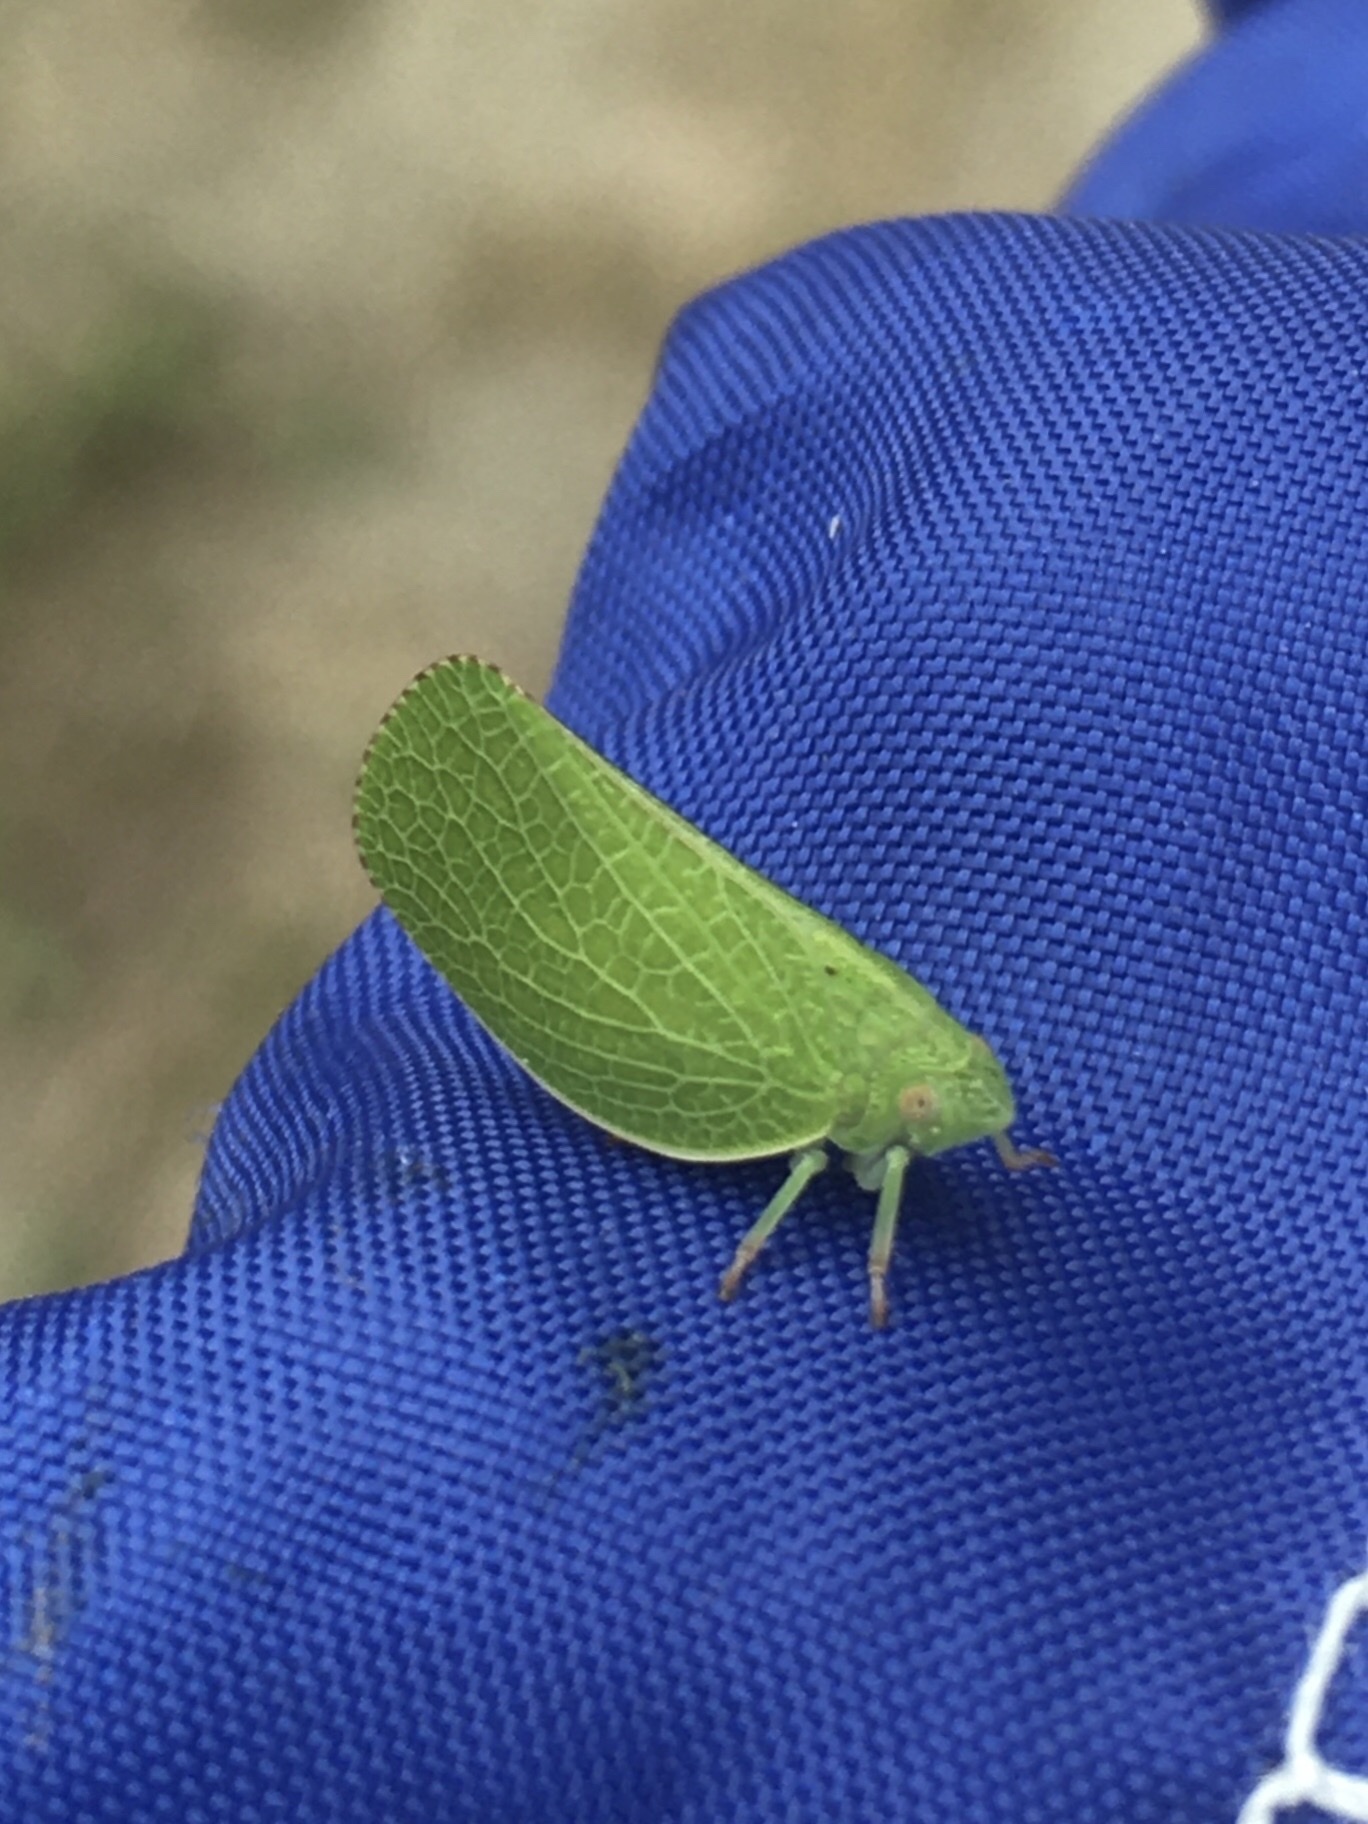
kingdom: Animalia
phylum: Arthropoda
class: Insecta
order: Hemiptera
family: Acanaloniidae
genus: Acanalonia
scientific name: Acanalonia conica
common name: Green cone-headed planthopper
